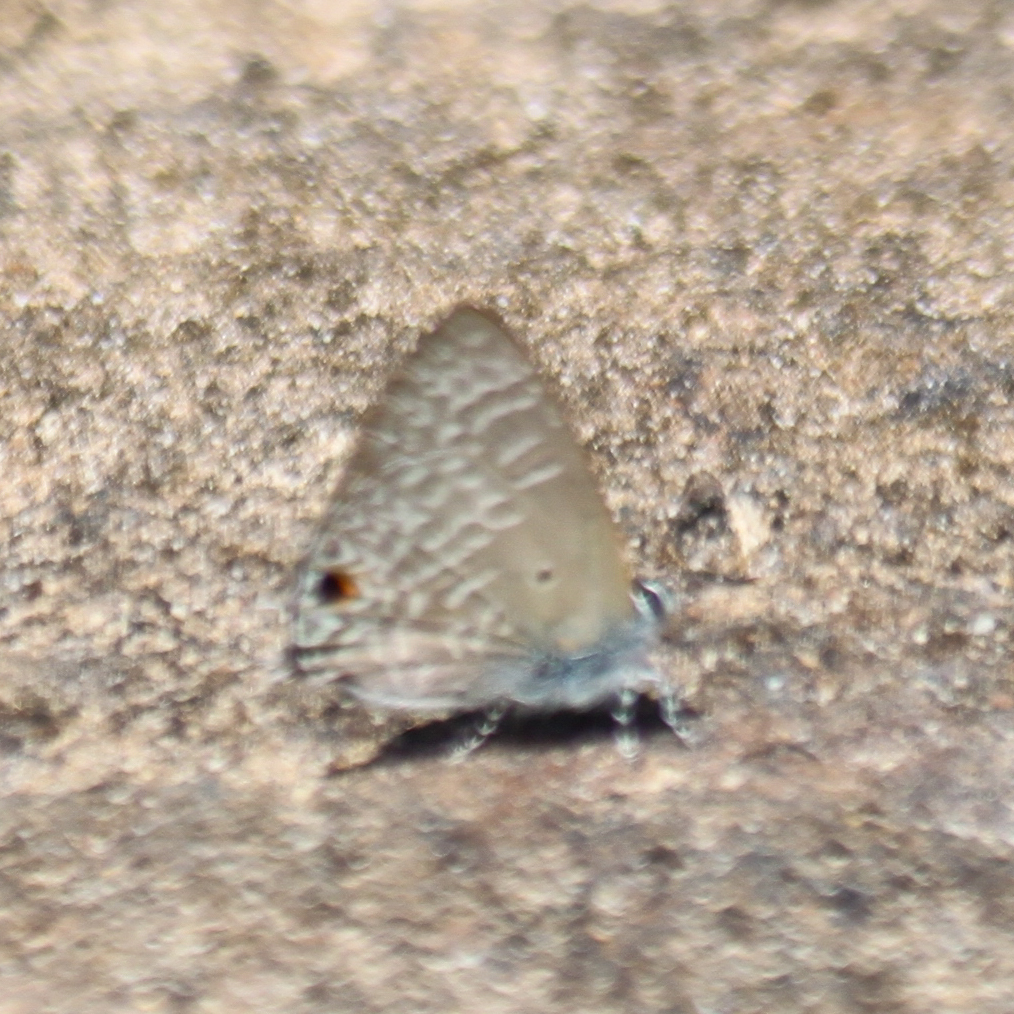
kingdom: Animalia
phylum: Arthropoda
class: Insecta
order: Lepidoptera
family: Lycaenidae
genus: Anthene
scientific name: Anthene lycaenina
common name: Pointed ciliate blue
